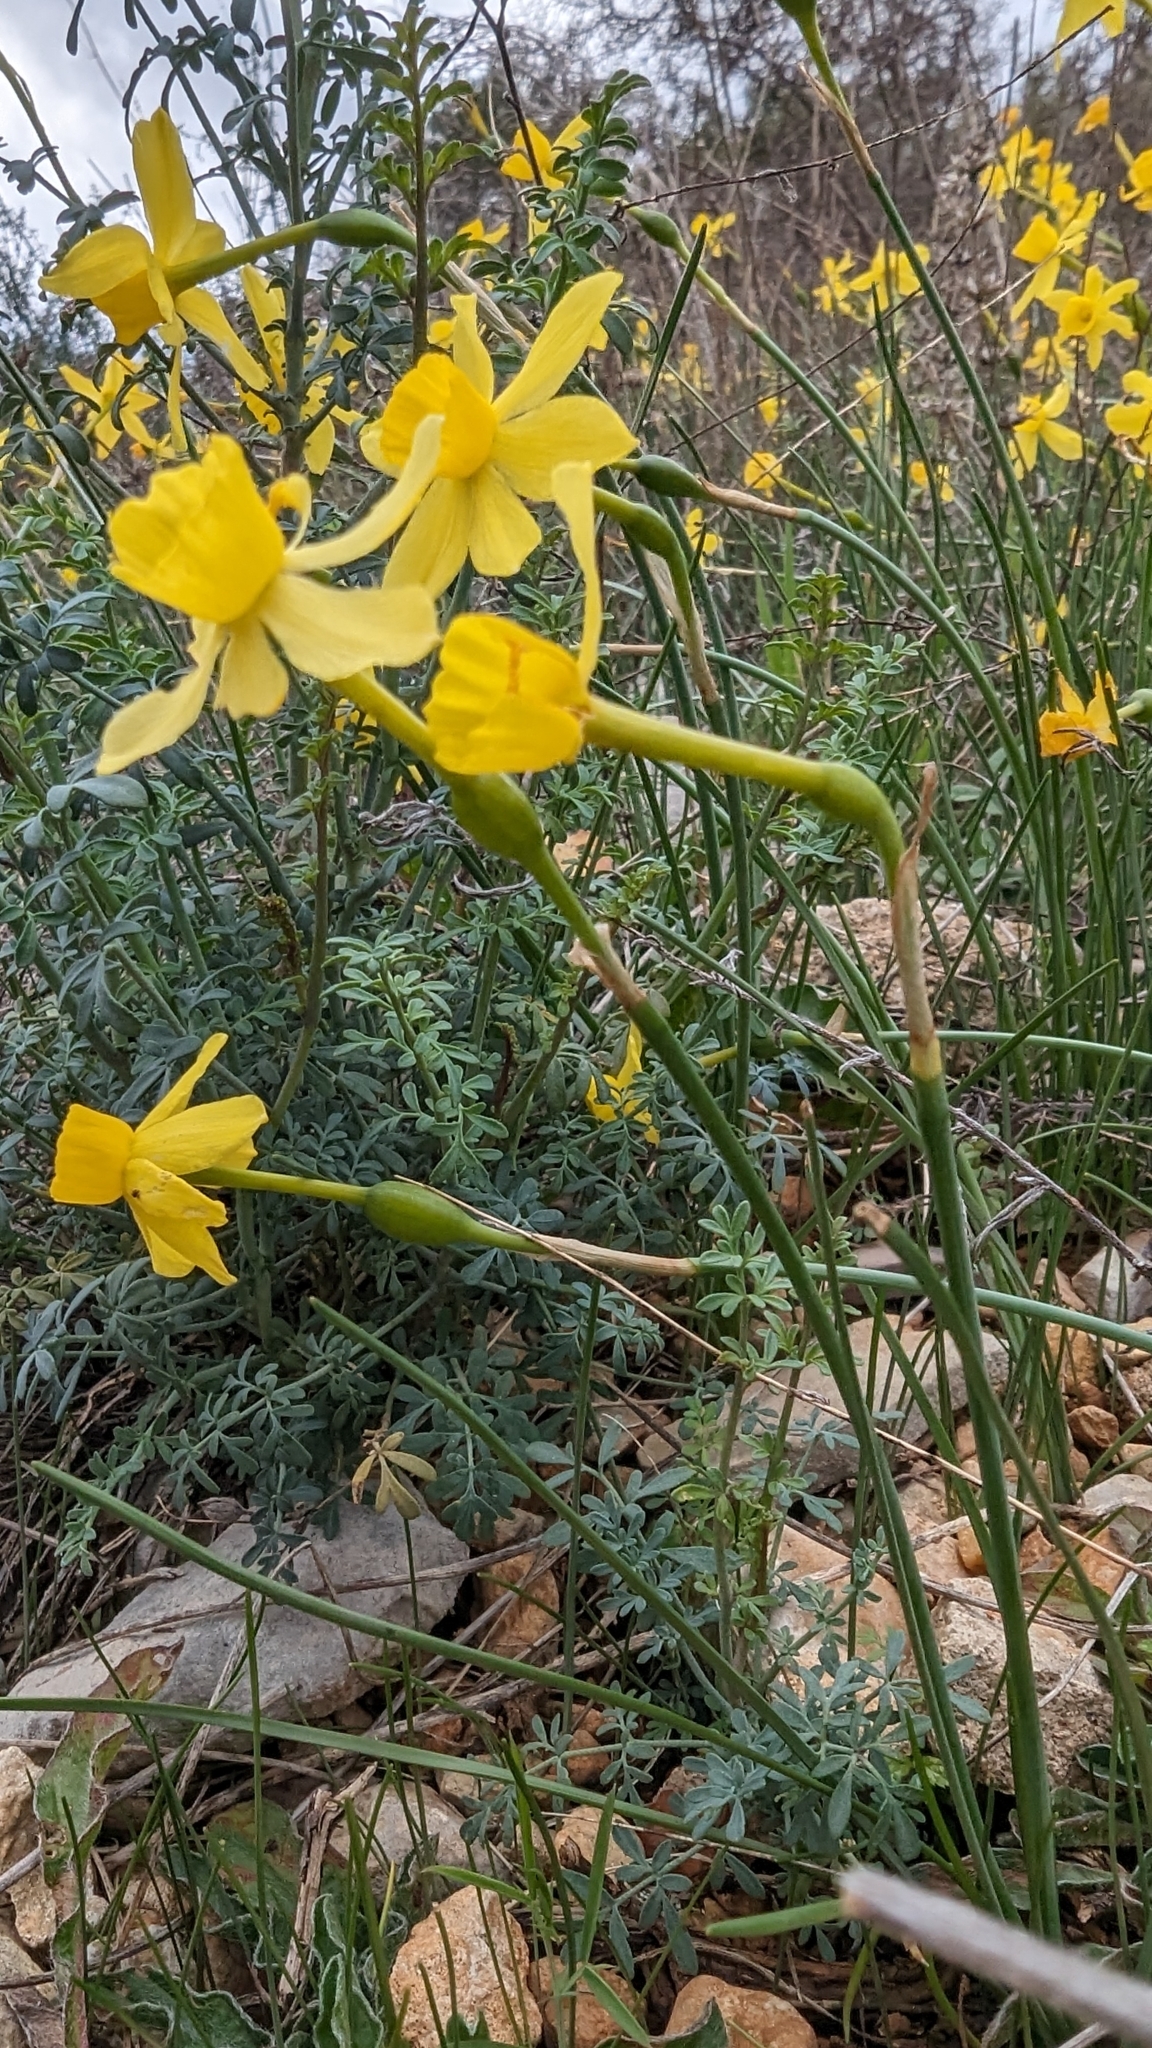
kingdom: Plantae
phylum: Tracheophyta
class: Liliopsida
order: Asparagales
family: Amaryllidaceae
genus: Narcissus
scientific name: Narcissus assoanus
